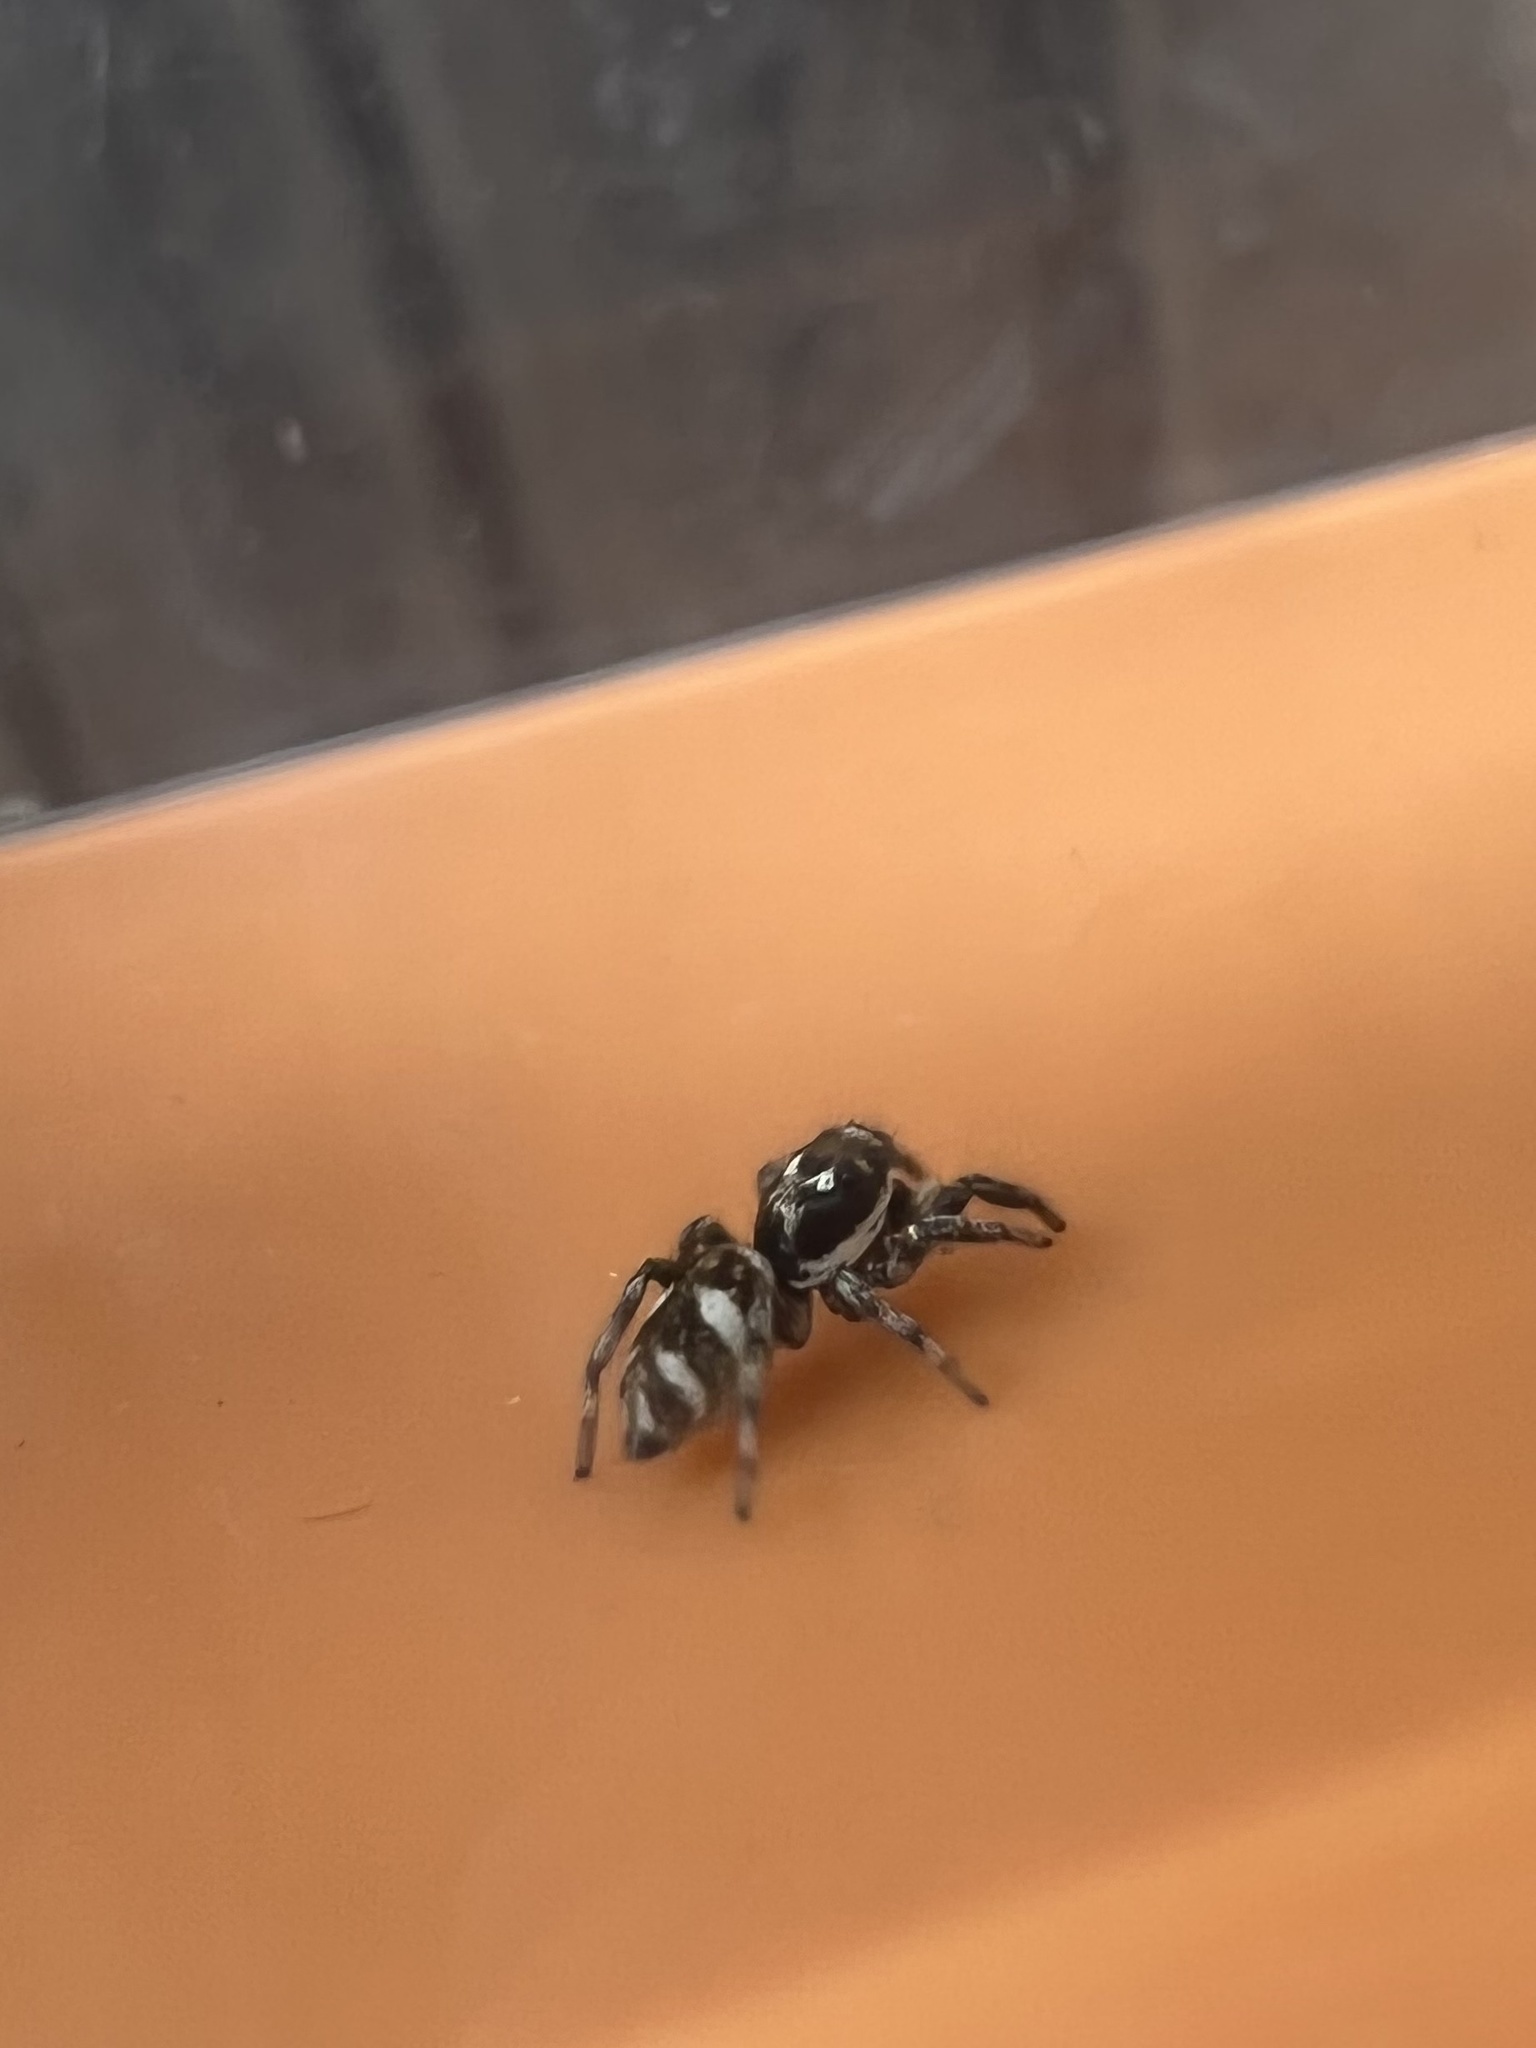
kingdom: Animalia
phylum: Arthropoda
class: Arachnida
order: Araneae
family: Salticidae
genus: Salticus
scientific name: Salticus scenicus
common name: Zebra jumper
